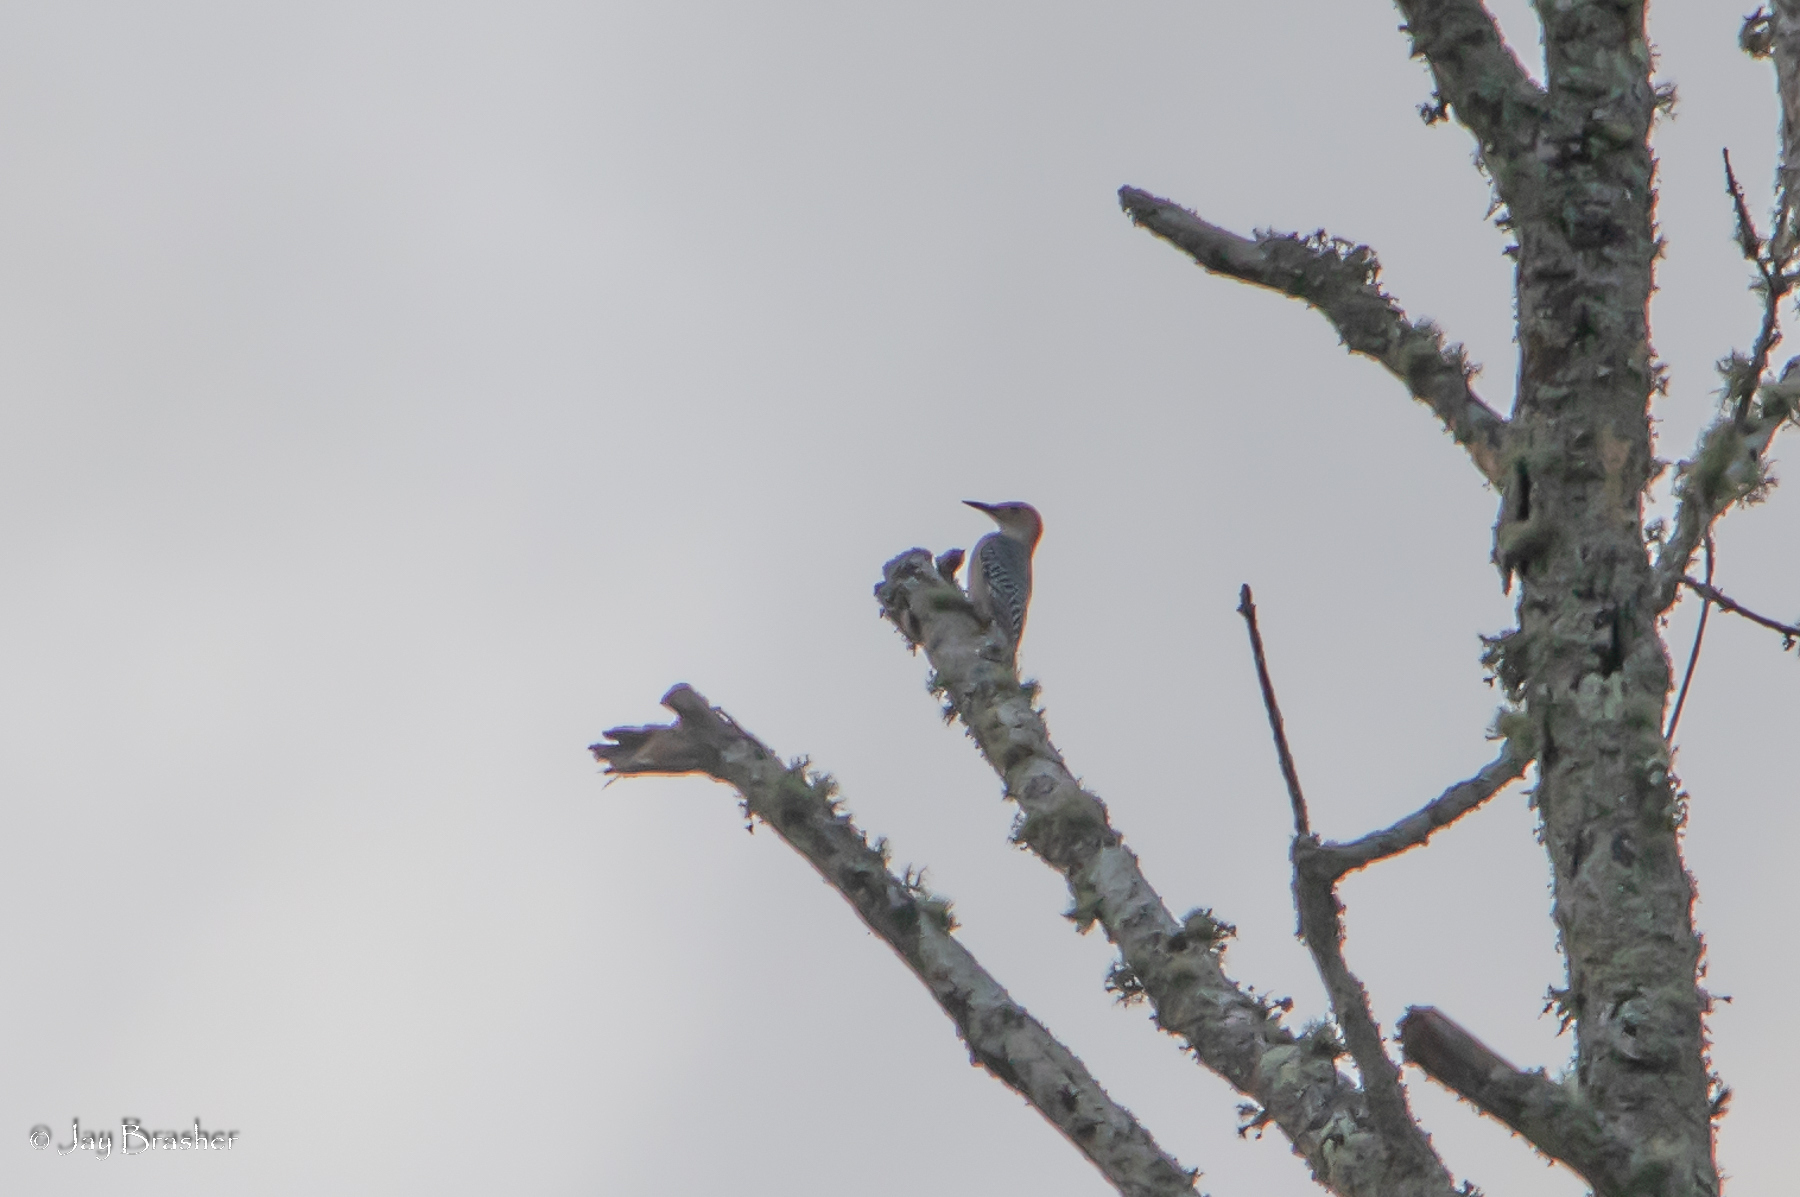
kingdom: Animalia
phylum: Chordata
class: Aves
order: Piciformes
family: Picidae
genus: Melanerpes
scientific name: Melanerpes carolinus
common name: Red-bellied woodpecker
